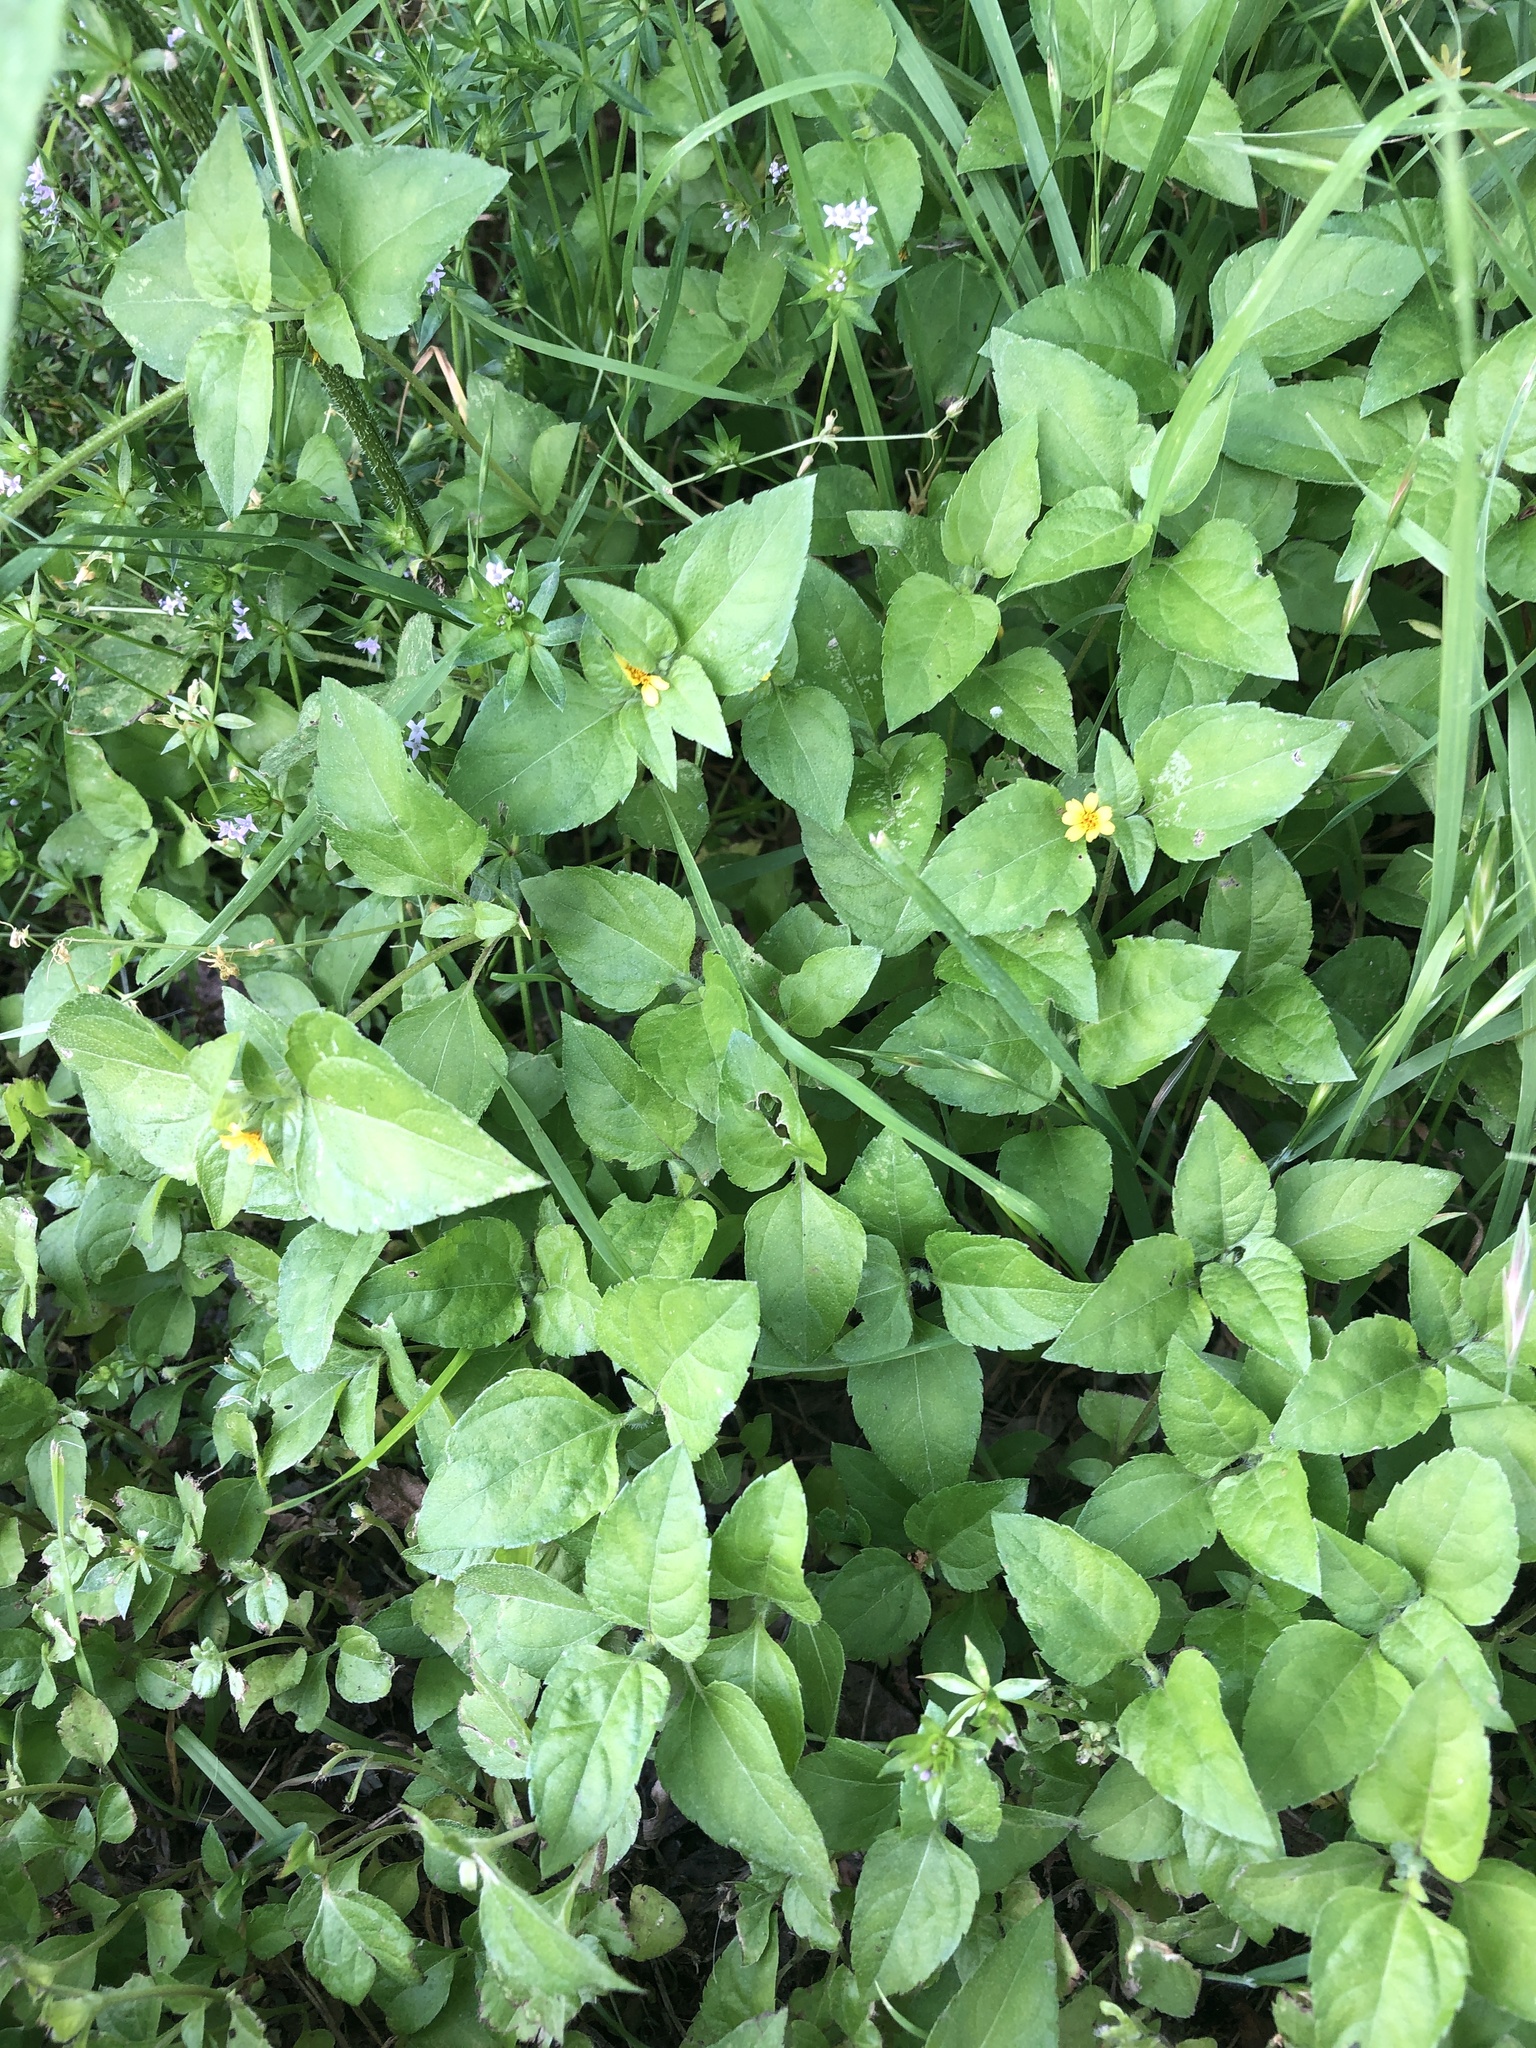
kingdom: Plantae
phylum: Tracheophyta
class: Magnoliopsida
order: Asterales
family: Asteraceae
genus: Calyptocarpus
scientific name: Calyptocarpus vialis
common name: Straggler daisy
